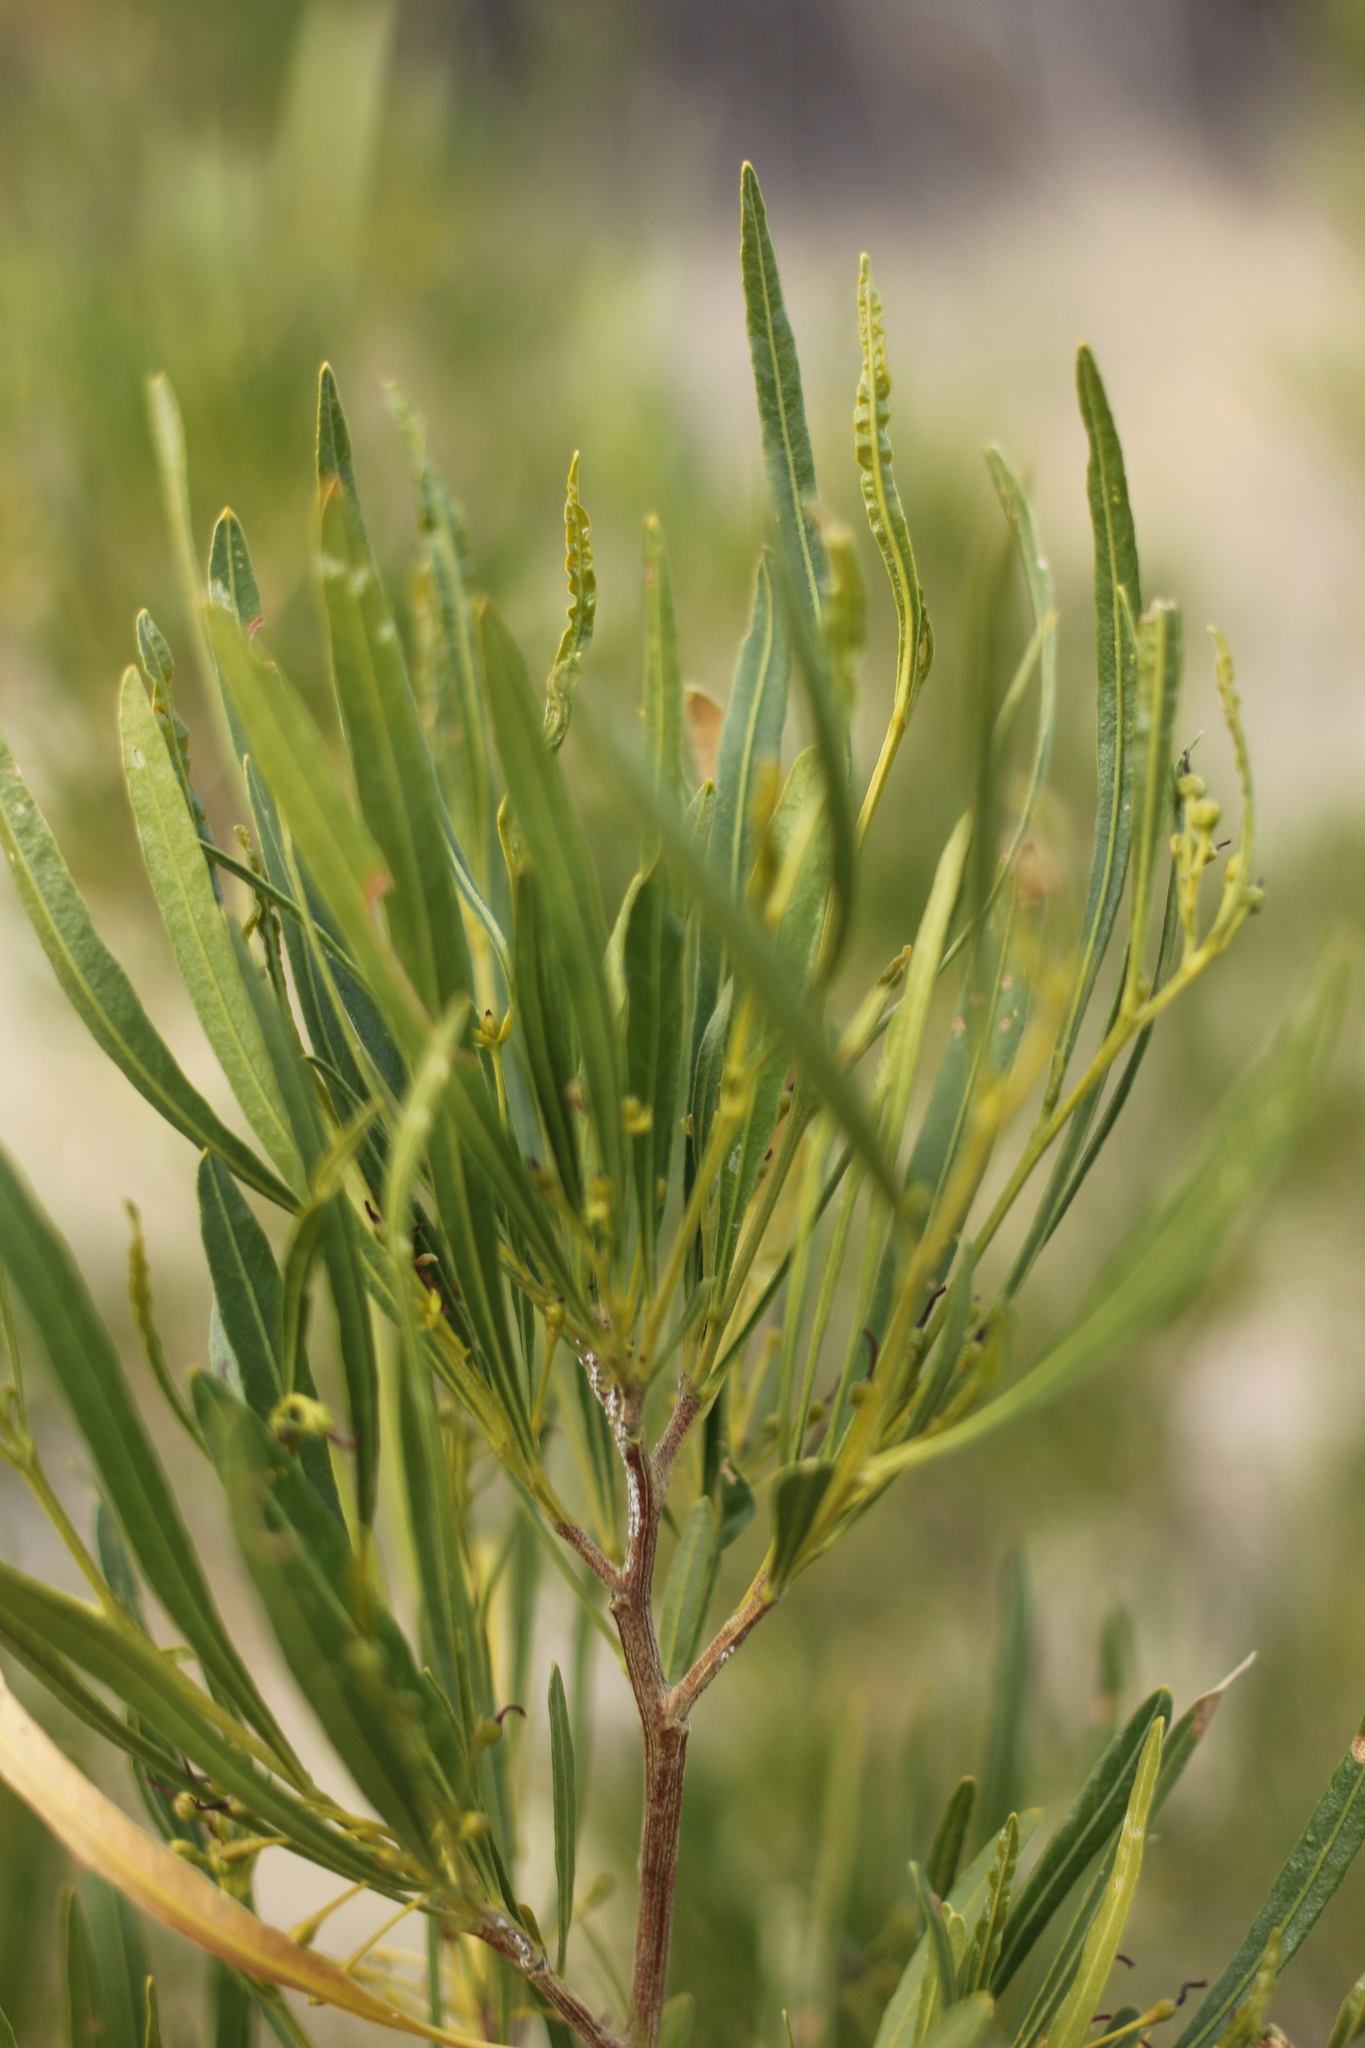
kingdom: Plantae
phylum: Tracheophyta
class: Magnoliopsida
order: Sapindales
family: Sapindaceae
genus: Dodonaea
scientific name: Dodonaea viscosa
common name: Hopbush
